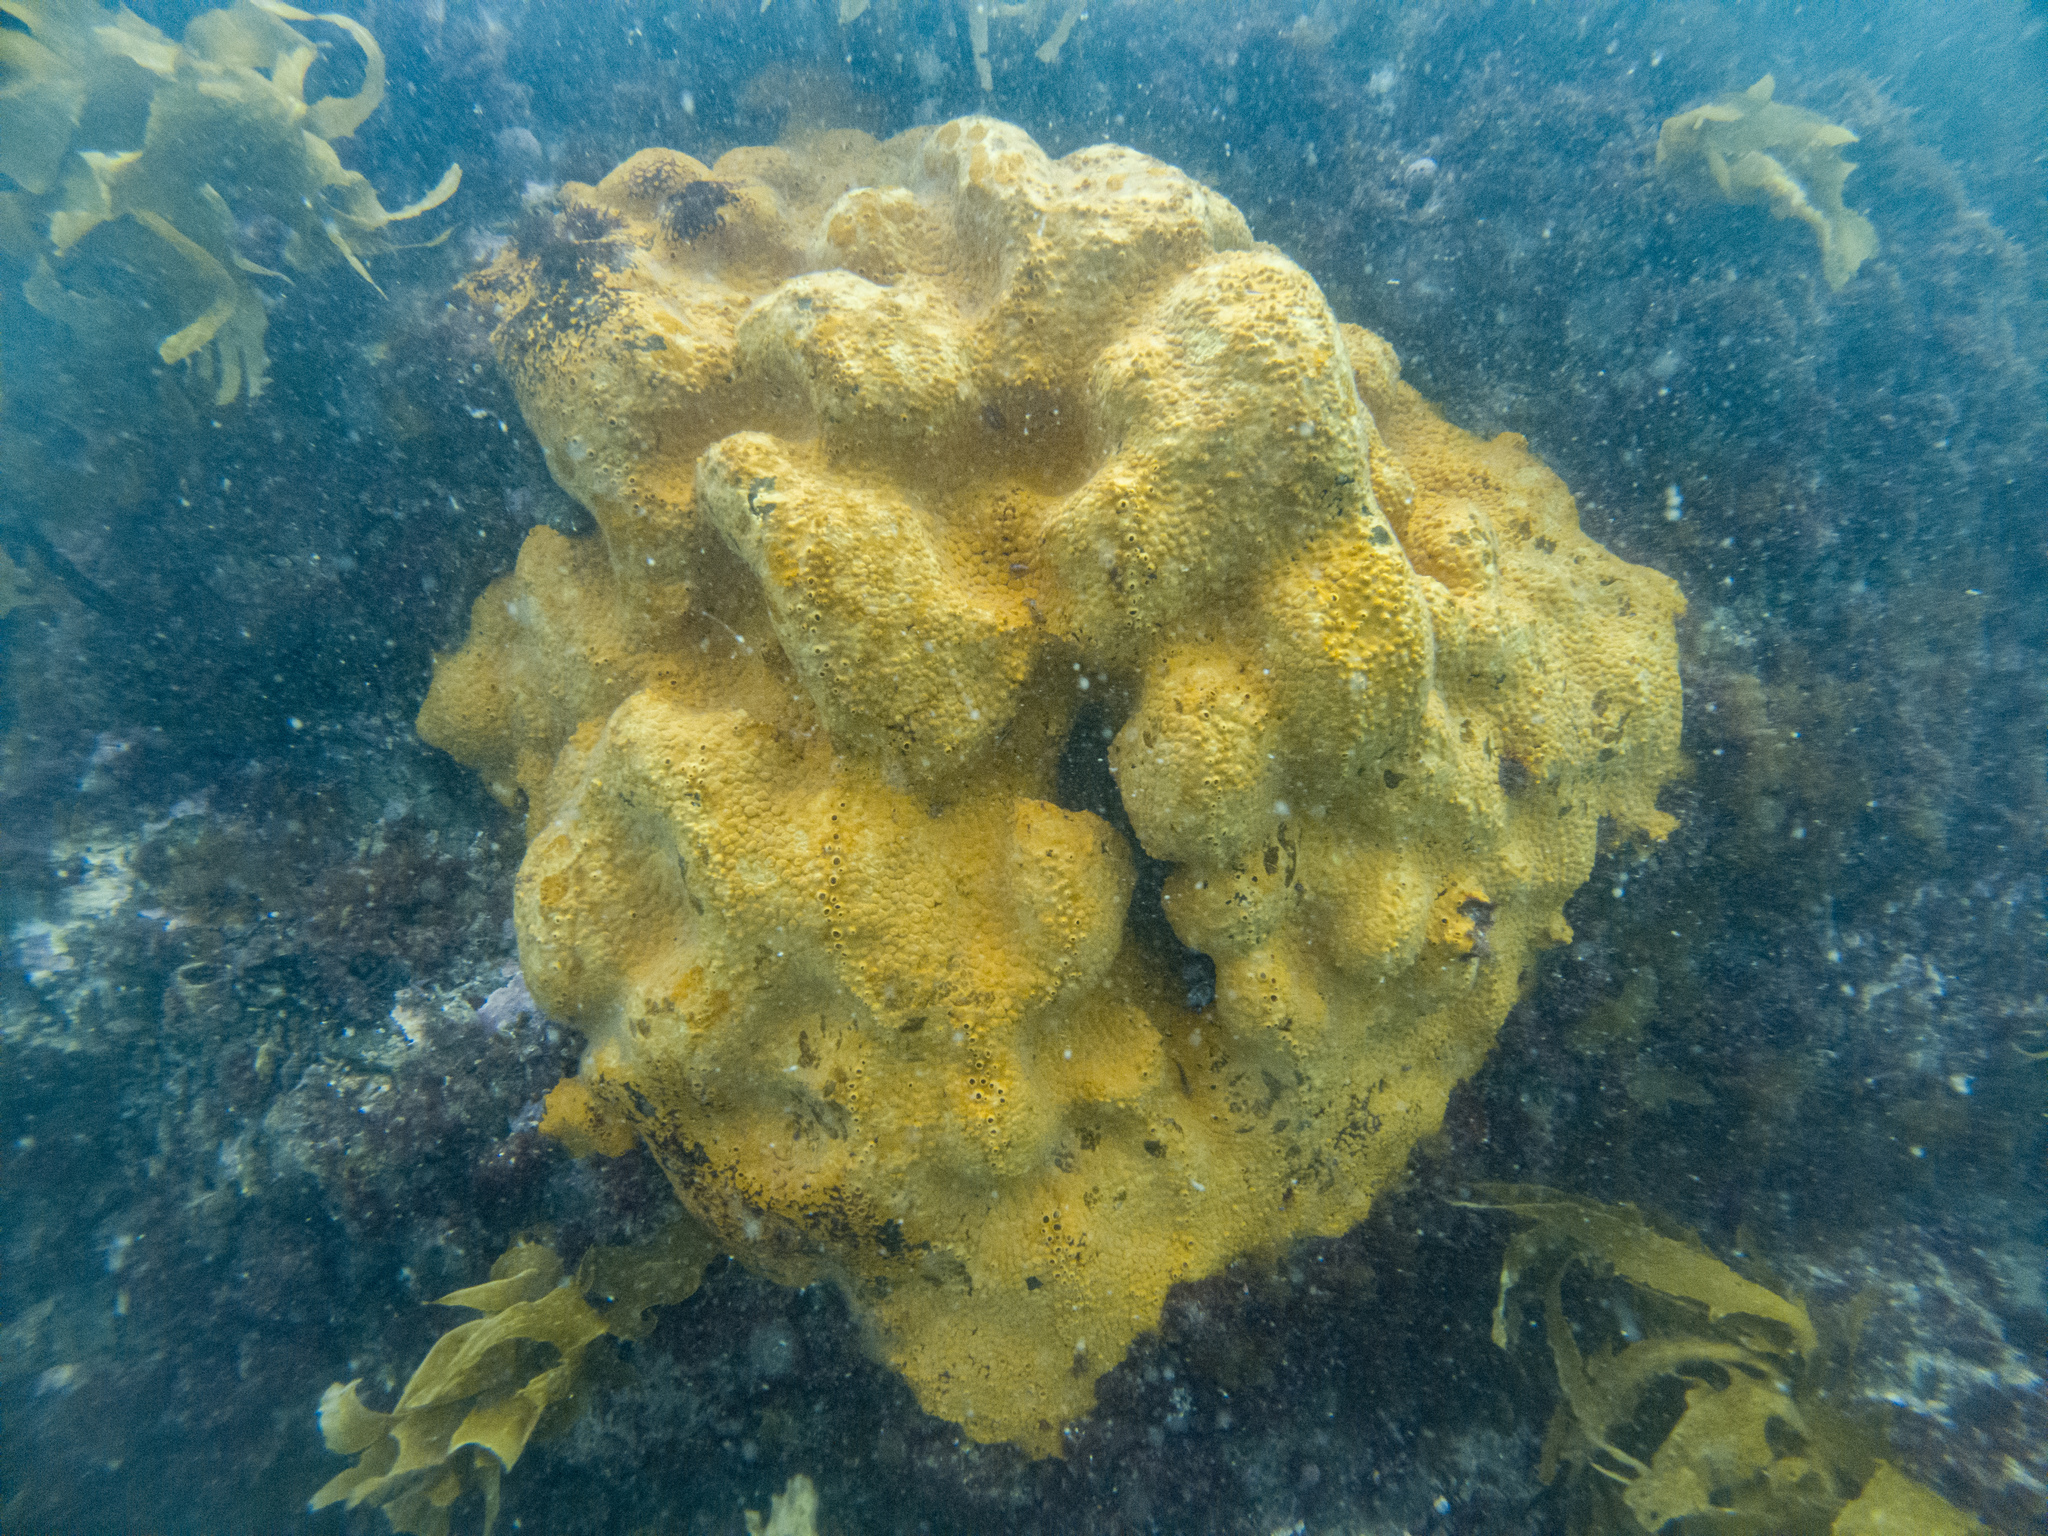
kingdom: Animalia
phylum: Porifera
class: Demospongiae
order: Clionaida
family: Clionaidae
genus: Cliona
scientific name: Cliona celata
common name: Boring sponge
